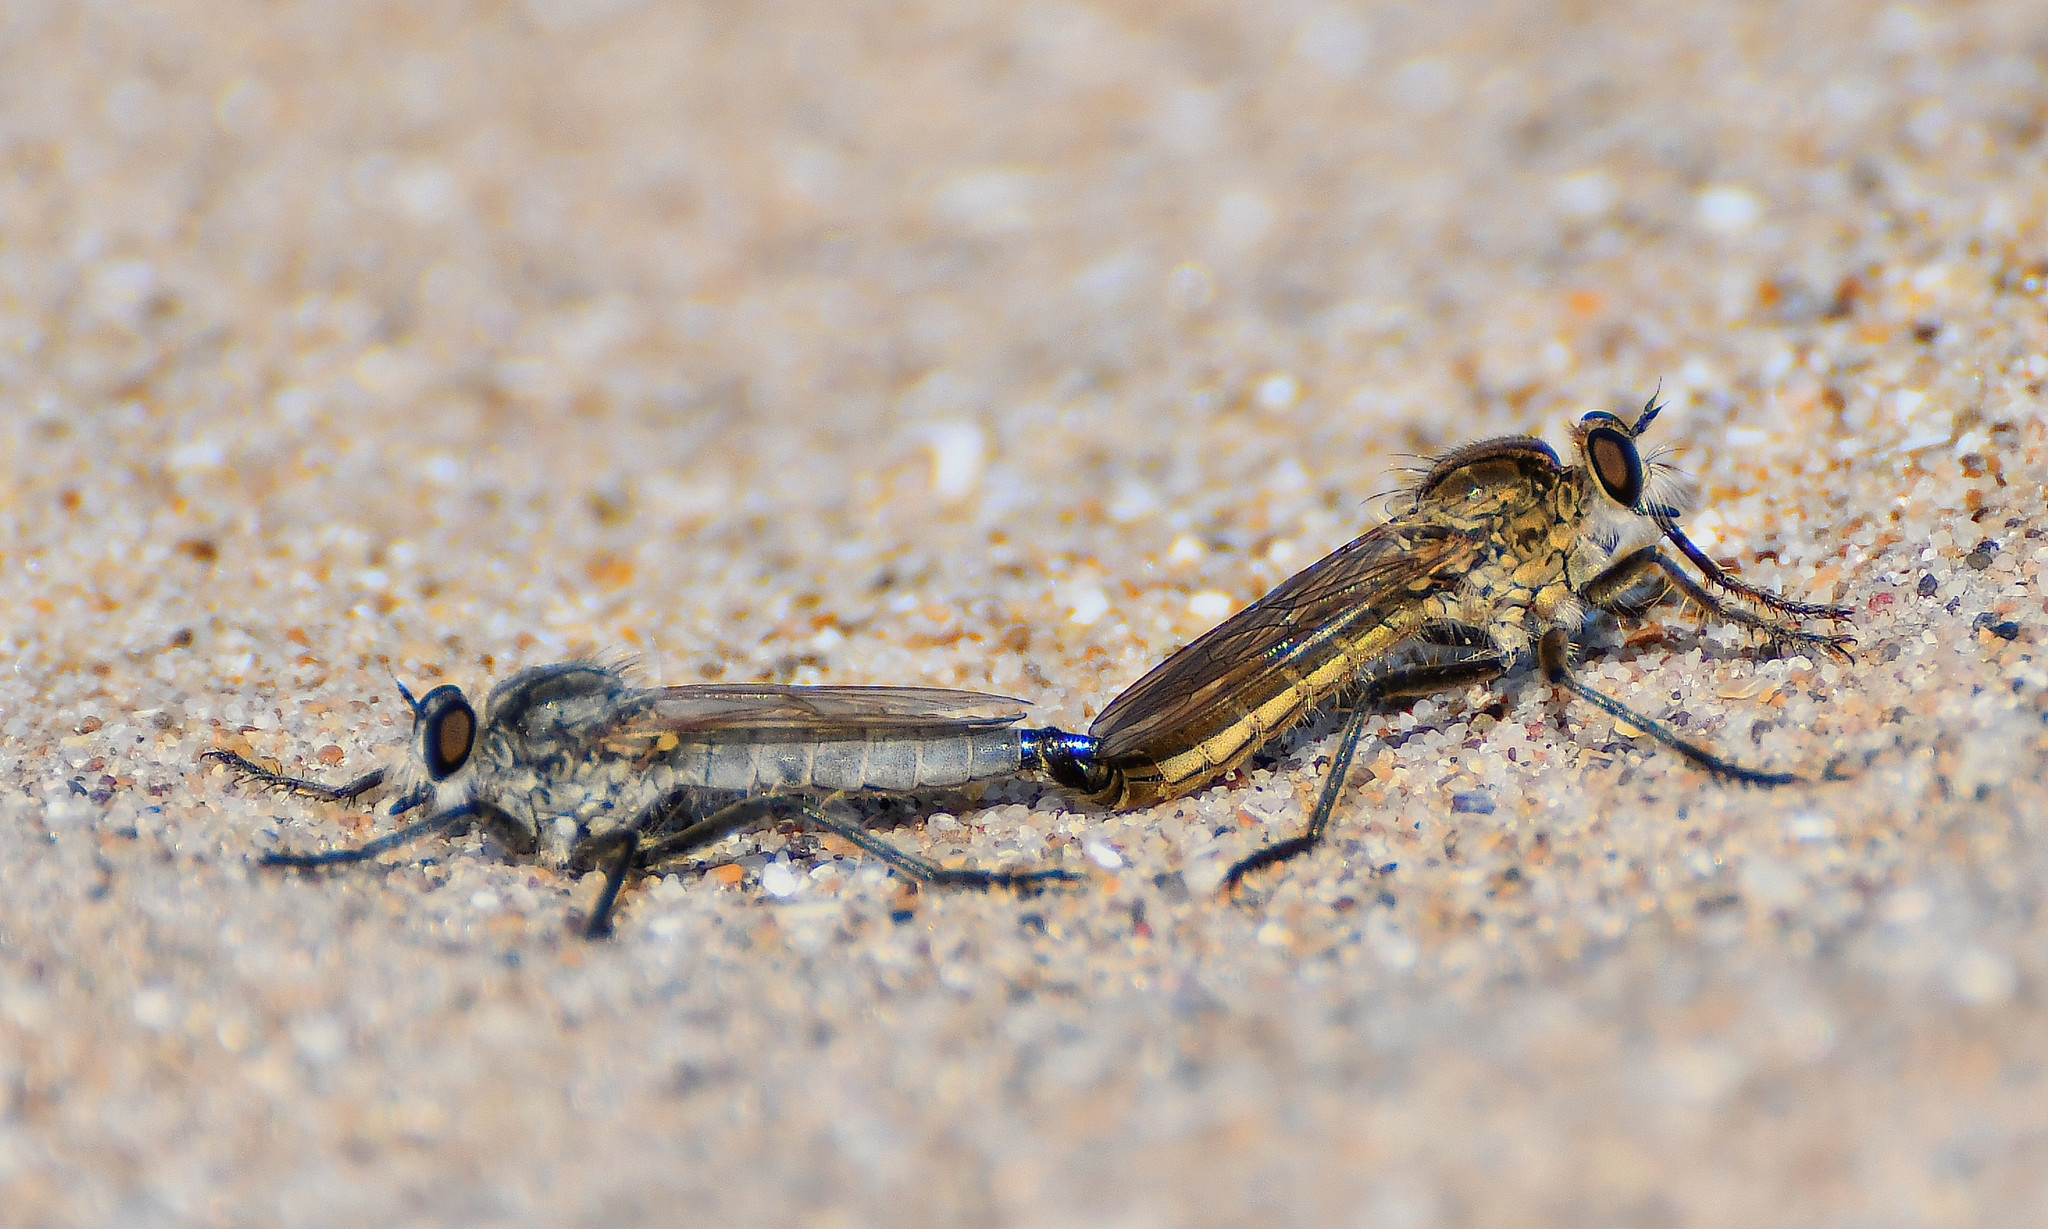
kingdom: Animalia
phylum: Arthropoda
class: Insecta
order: Diptera
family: Asilidae
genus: Philonicus
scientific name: Philonicus albiceps
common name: Dune robberfly
